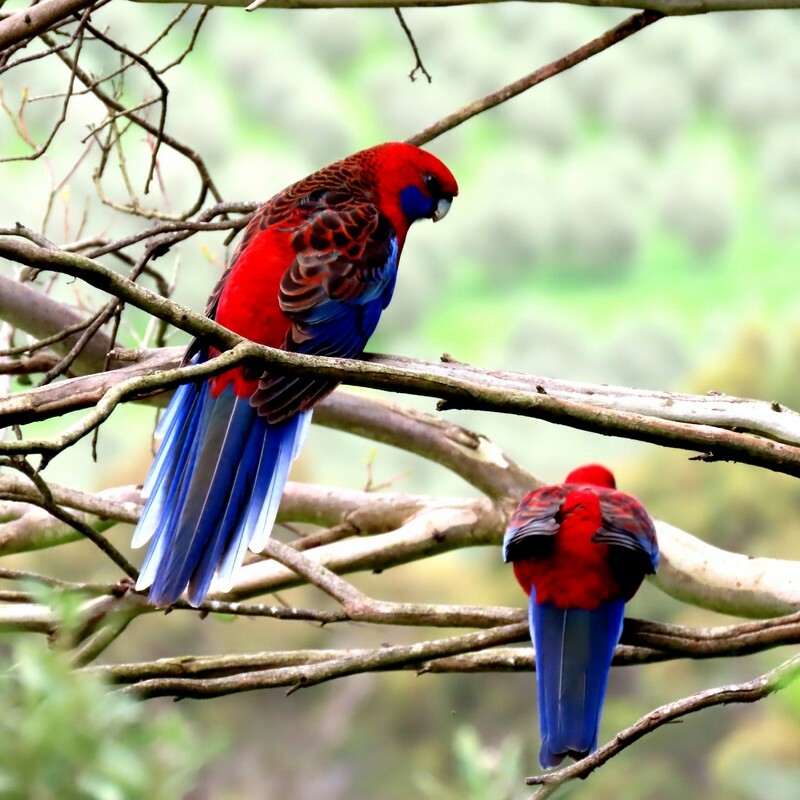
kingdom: Animalia
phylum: Chordata
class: Aves
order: Psittaciformes
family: Psittacidae
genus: Platycercus
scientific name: Platycercus elegans
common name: Crimson rosella
